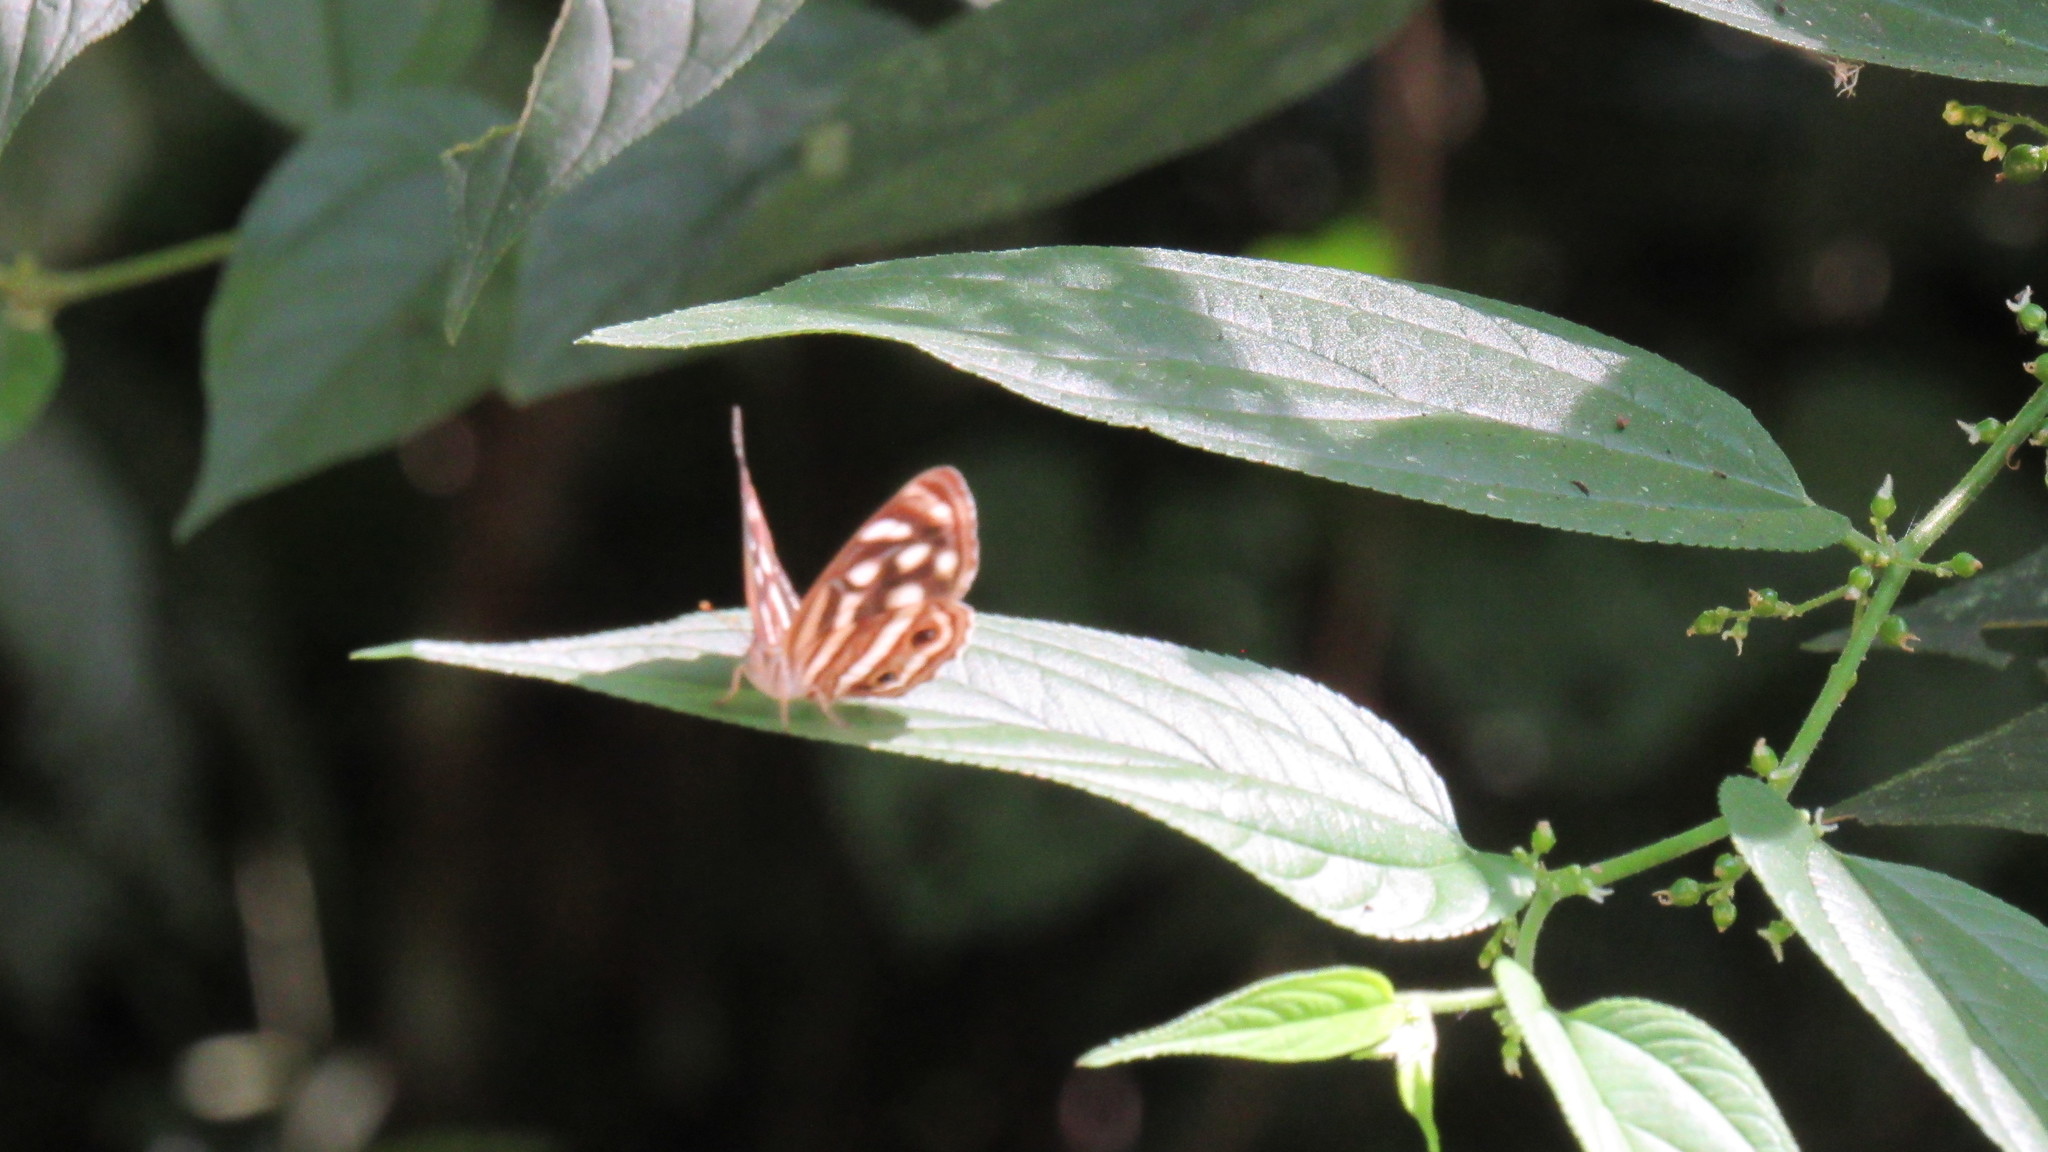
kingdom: Animalia
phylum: Arthropoda
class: Insecta
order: Lepidoptera
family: Nymphalidae
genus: Dynamine
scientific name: Dynamine mylitta
